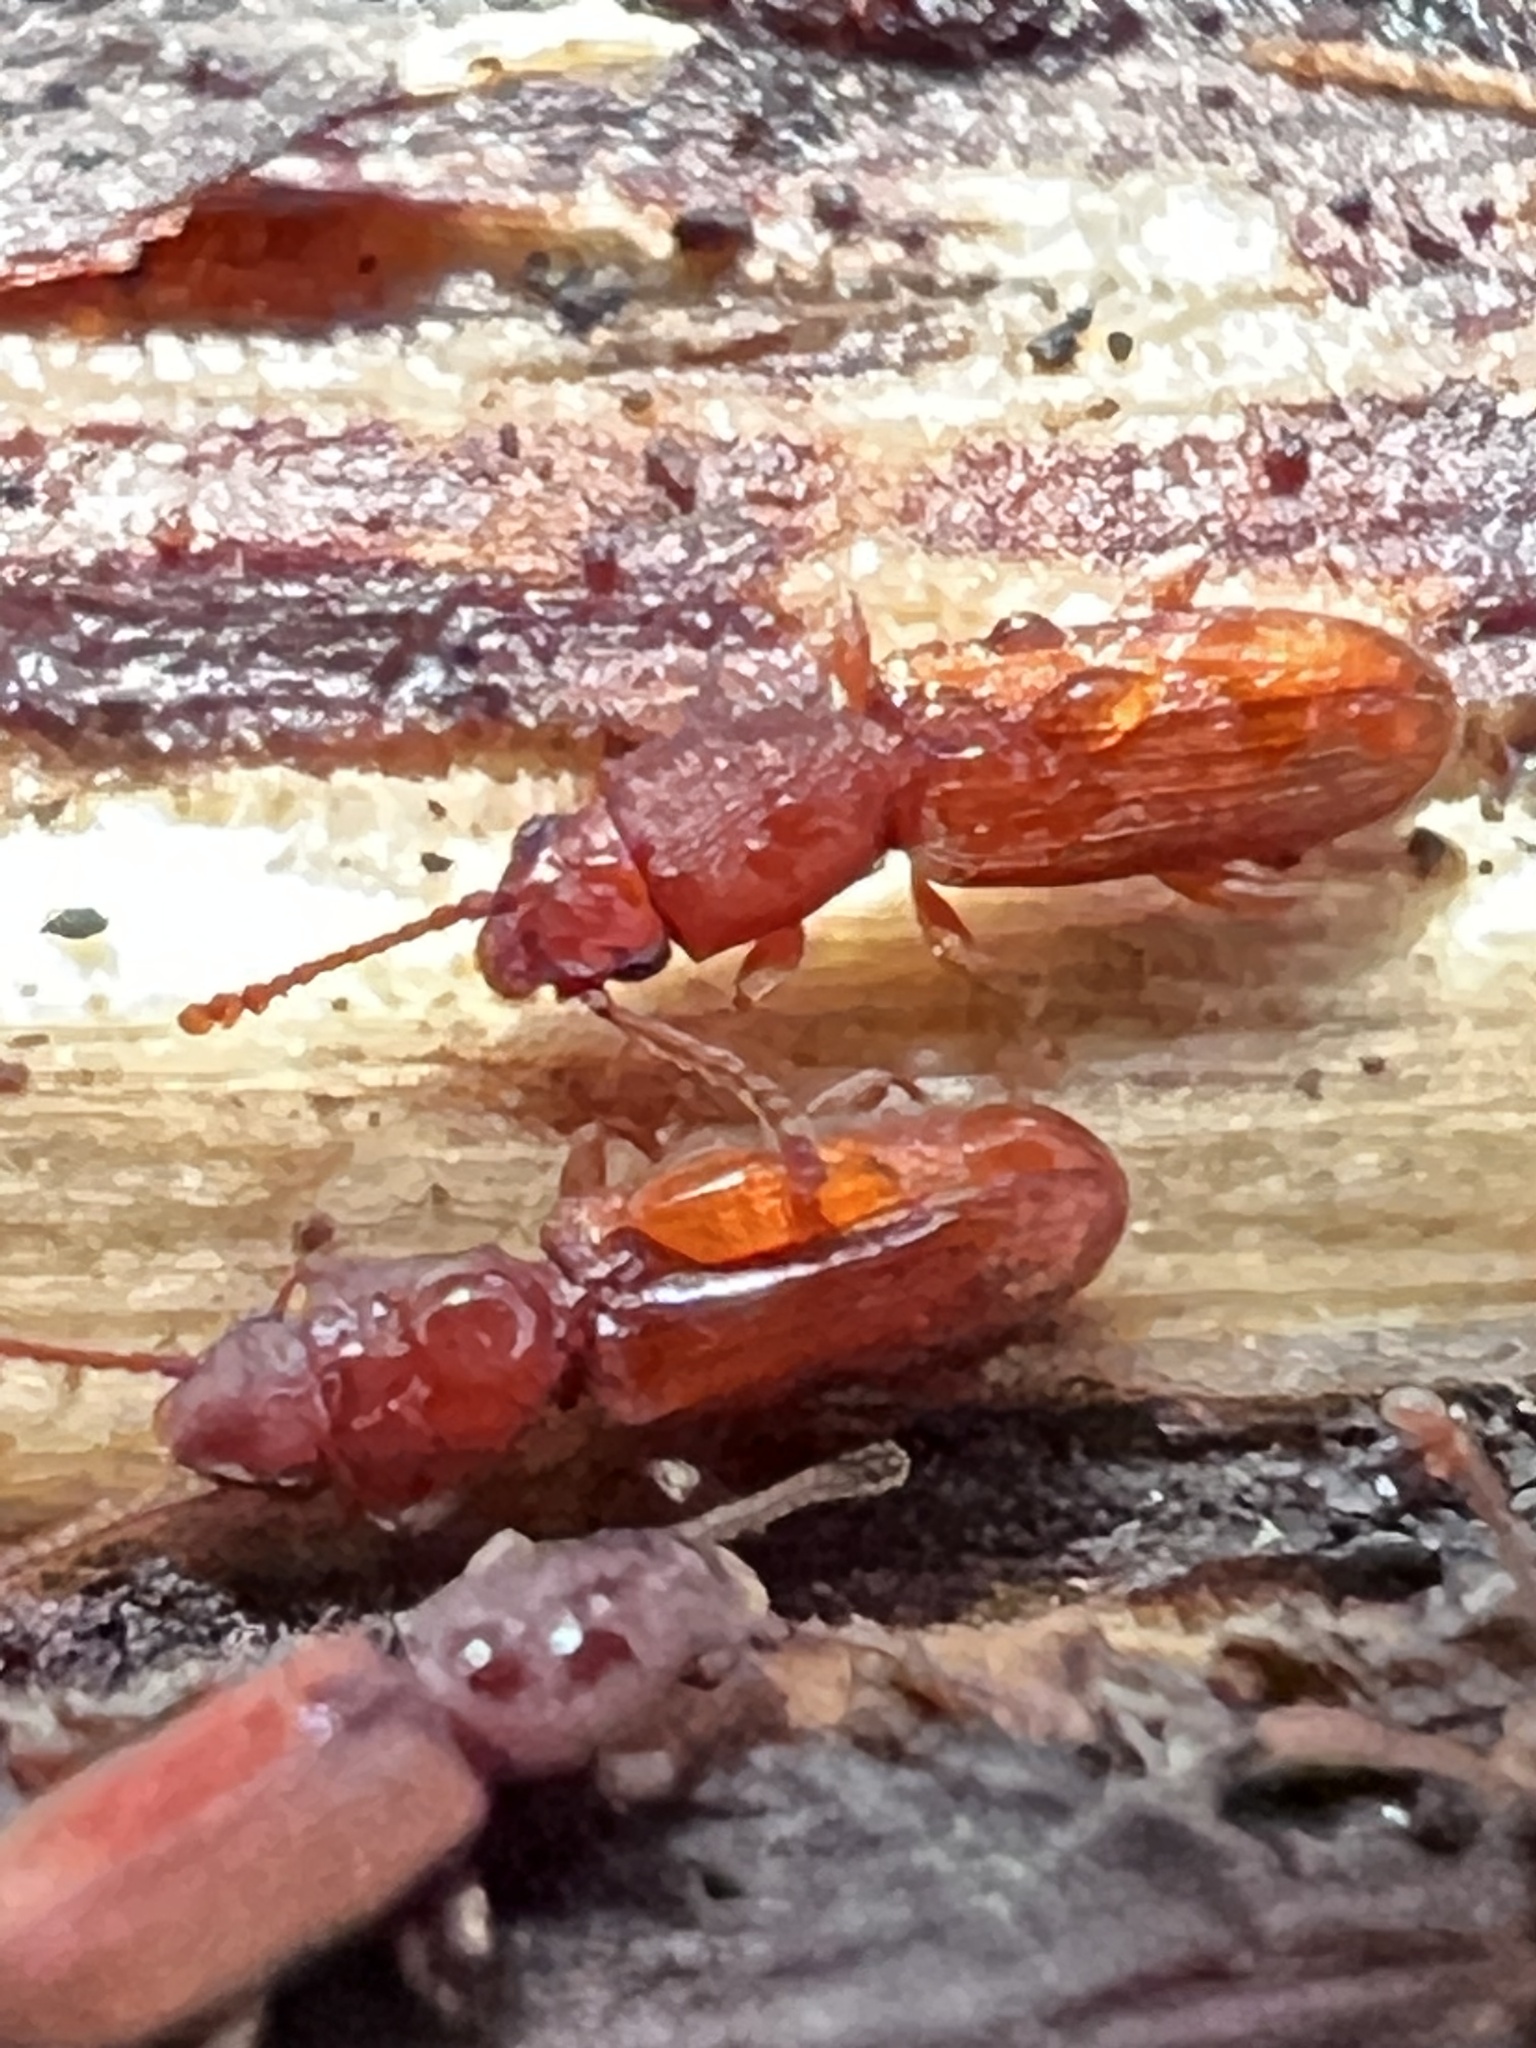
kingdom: Animalia
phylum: Arthropoda
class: Insecta
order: Coleoptera
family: Silvanidae
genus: Cathartosilvanus
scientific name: Cathartosilvanus imbellis
